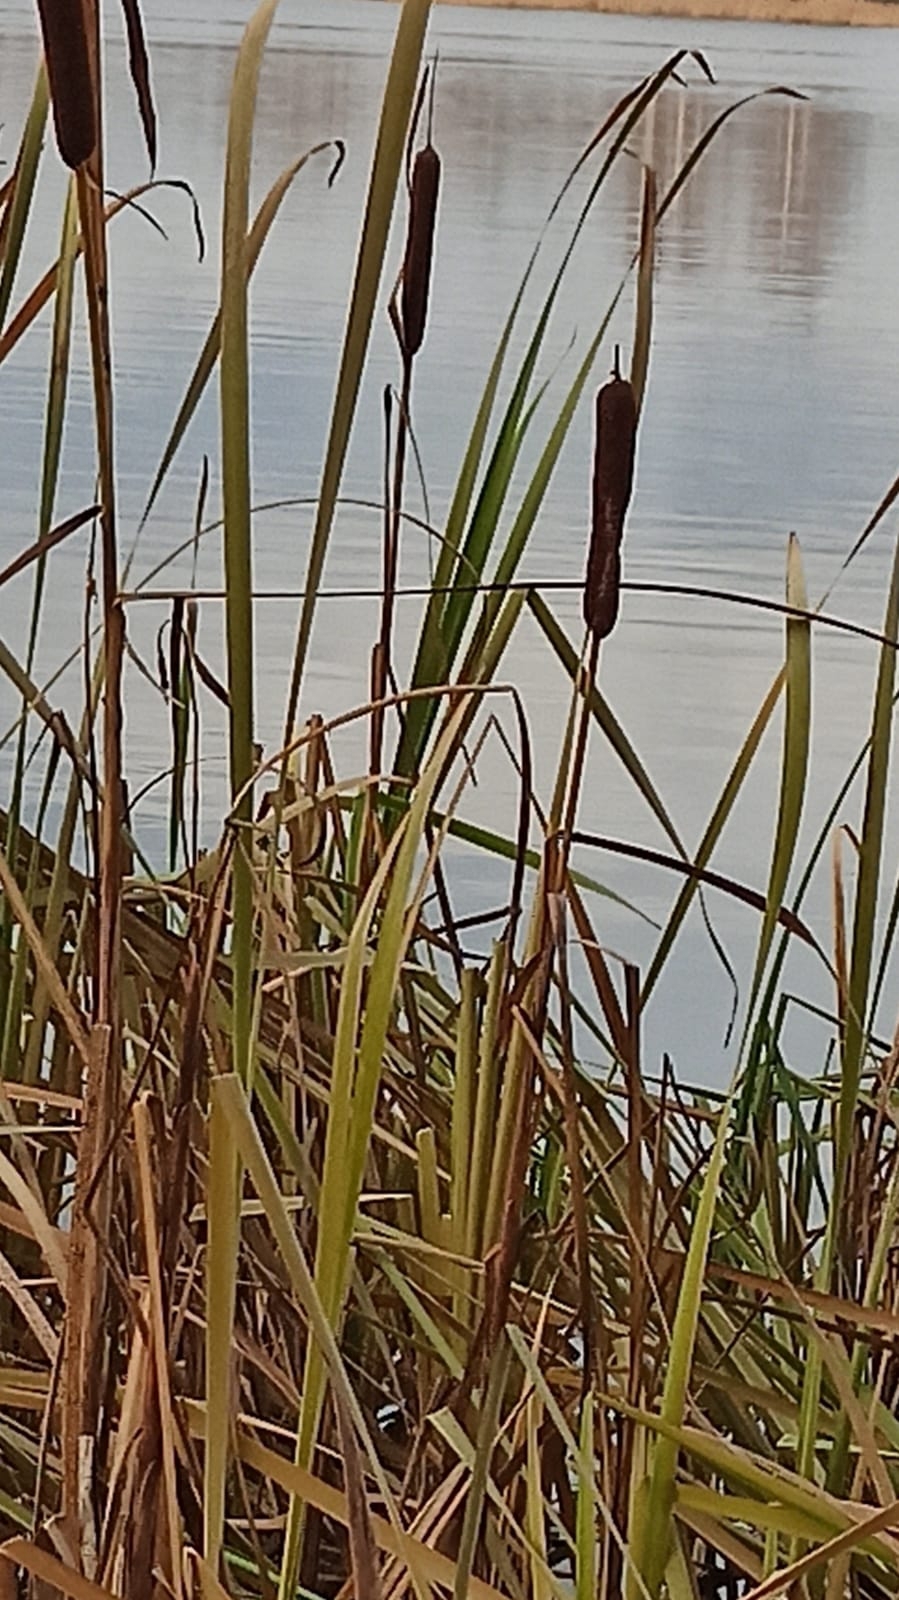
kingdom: Plantae
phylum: Tracheophyta
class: Liliopsida
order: Poales
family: Typhaceae
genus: Typha
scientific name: Typha latifolia
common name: Broadleaf cattail
